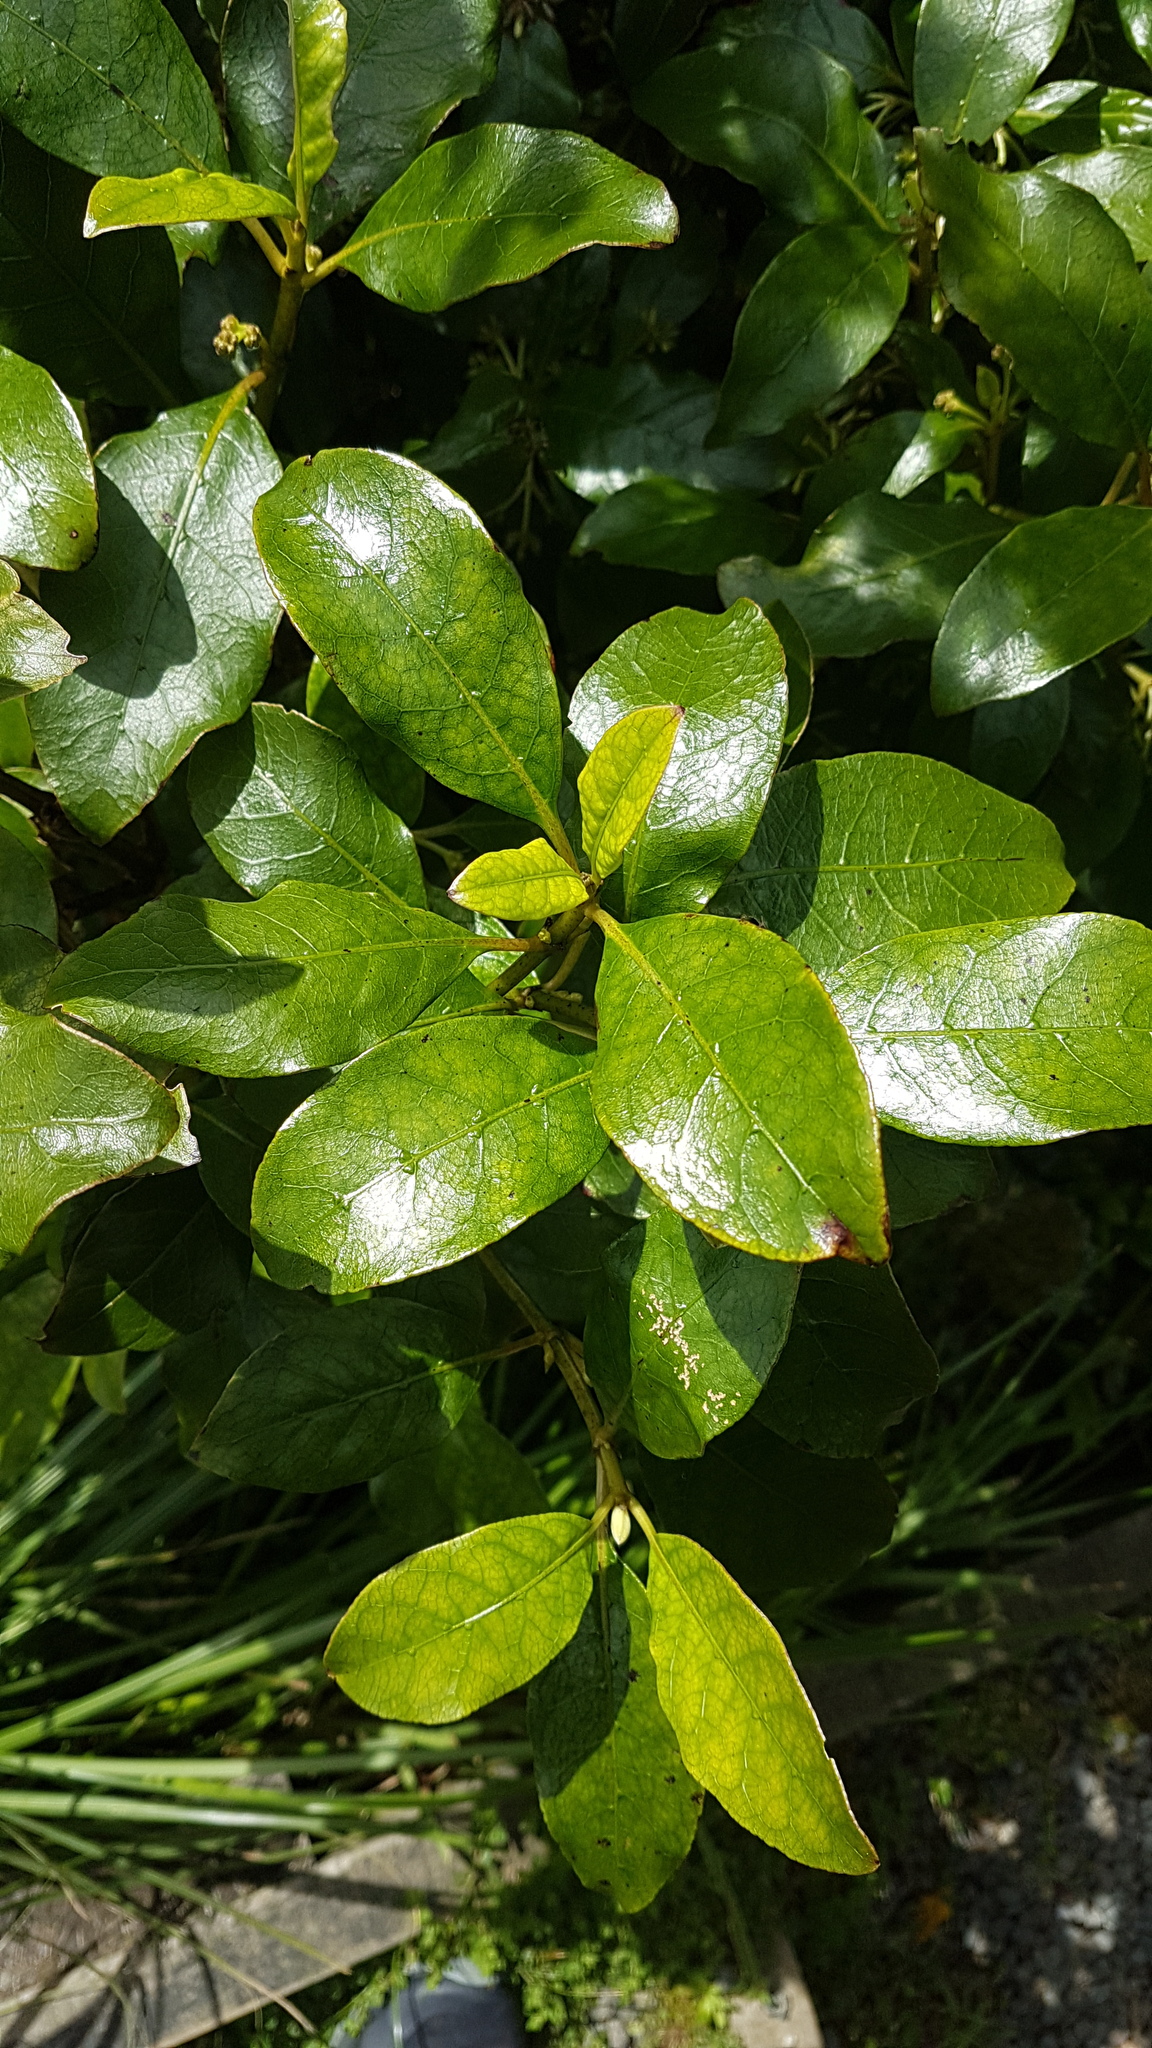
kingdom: Plantae
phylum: Tracheophyta
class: Magnoliopsida
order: Gentianales
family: Rubiaceae
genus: Coprosma
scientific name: Coprosma autumnalis
